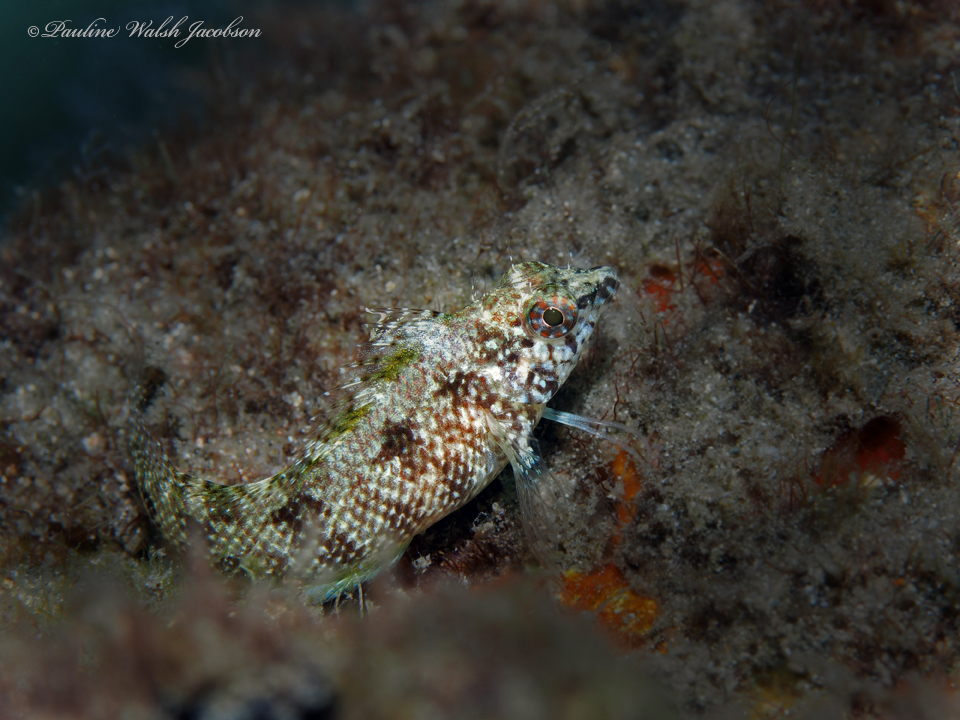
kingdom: Animalia
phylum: Chordata
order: Perciformes
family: Labrisomidae
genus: Malacoctenus
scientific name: Malacoctenus macropus
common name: Rosy blenny
